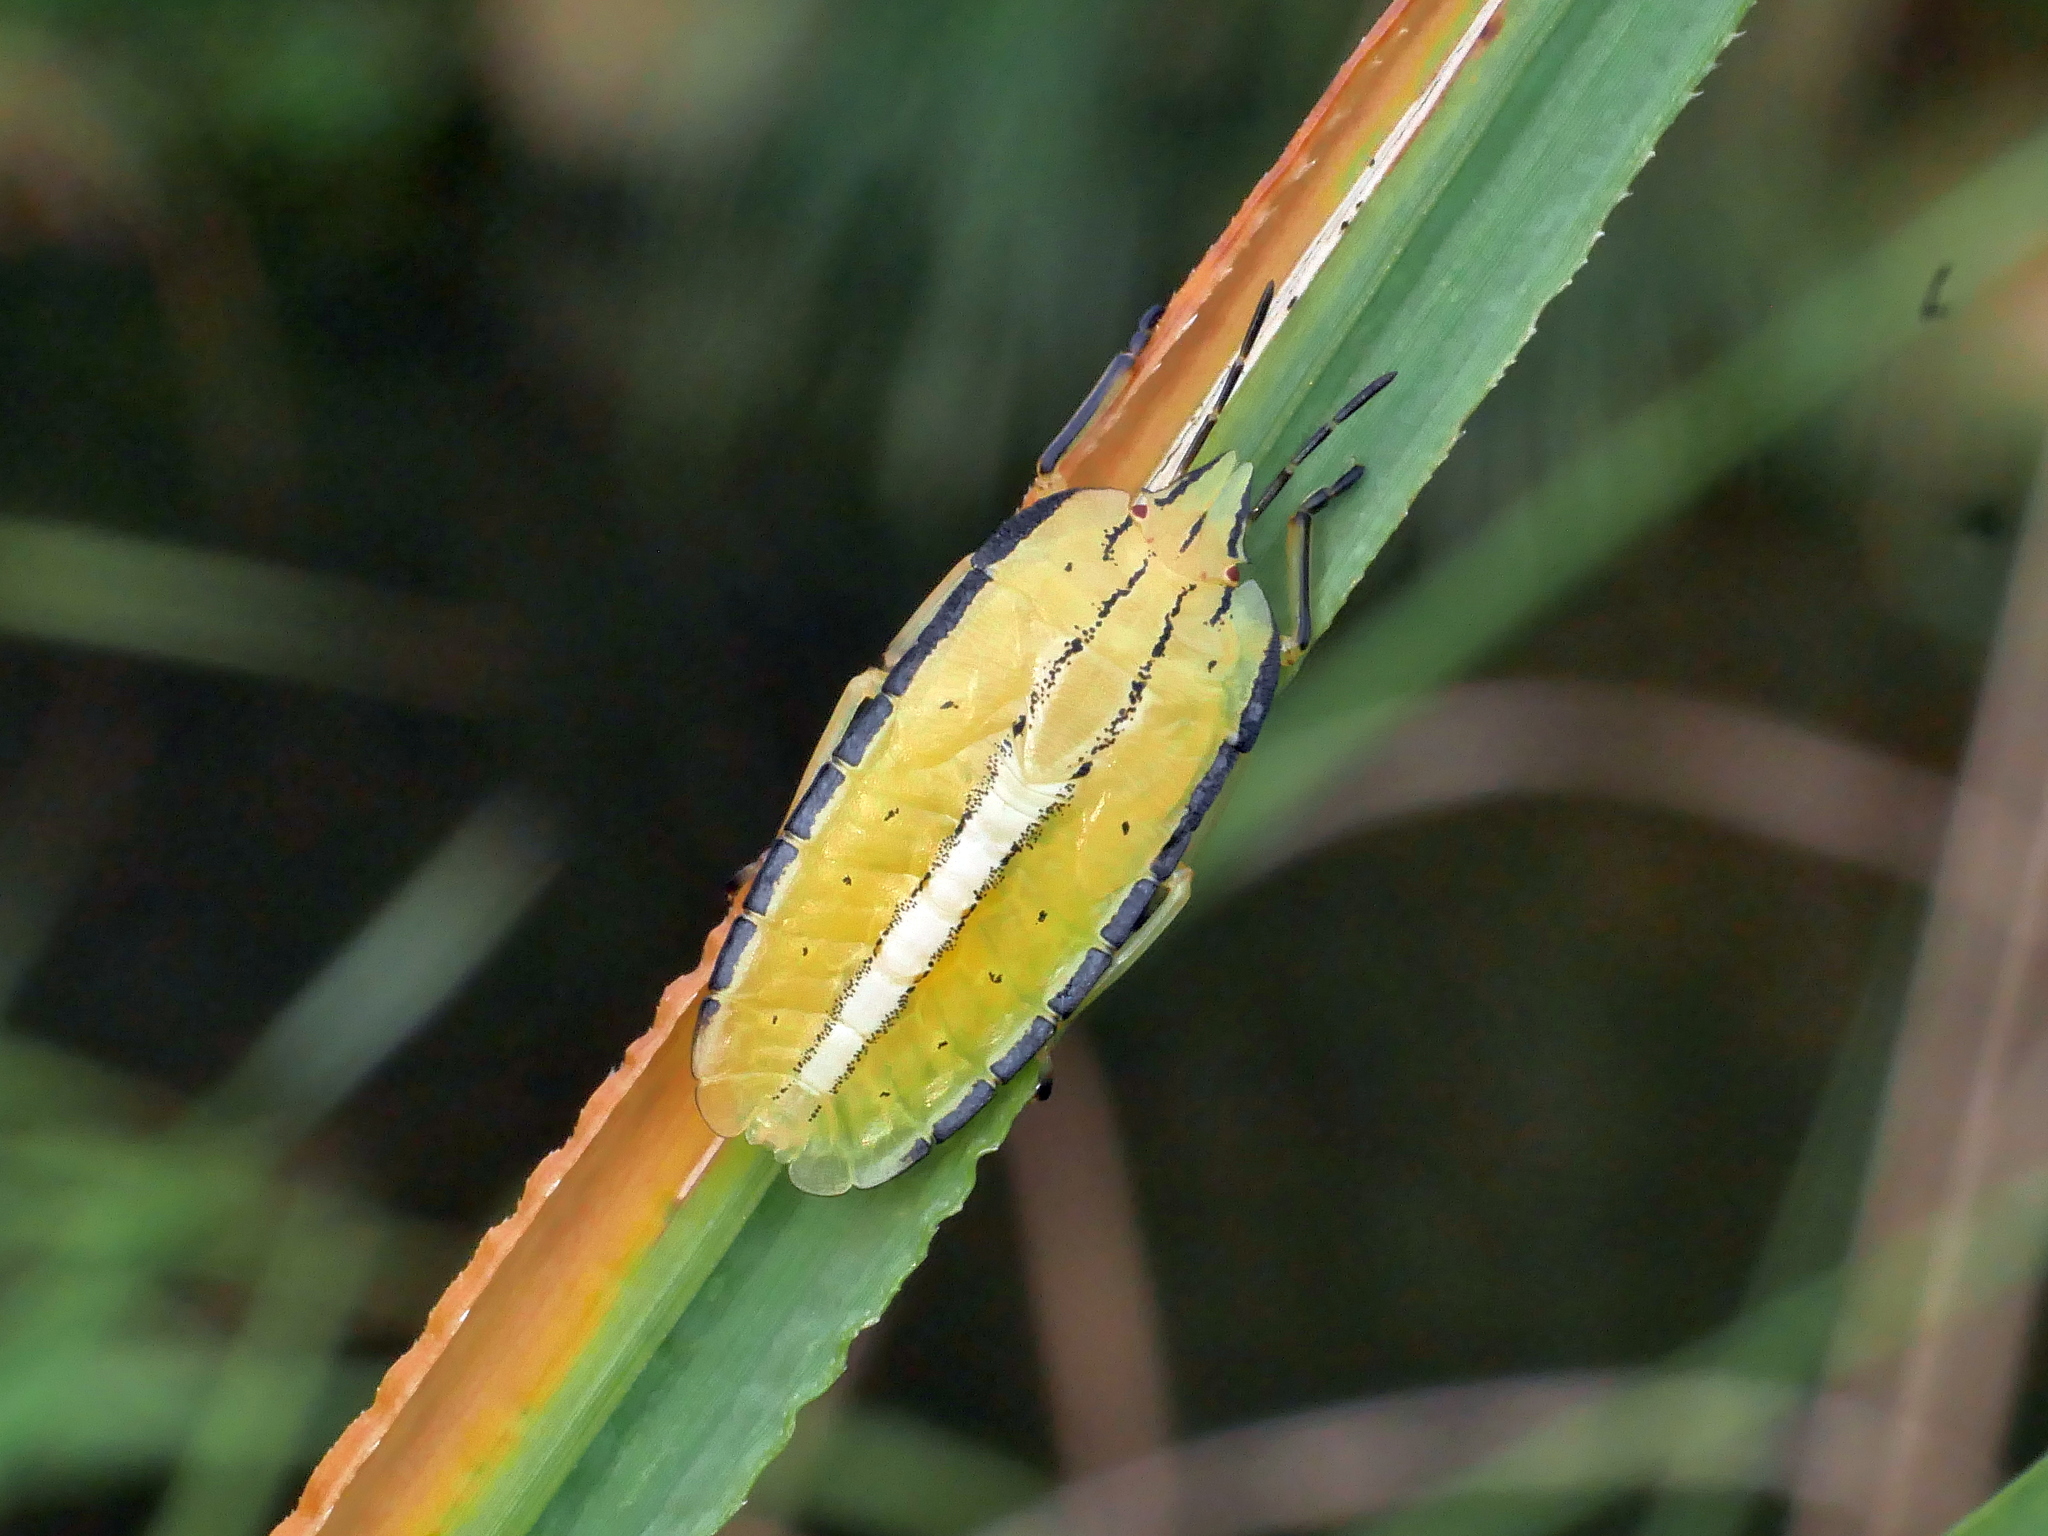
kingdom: Animalia
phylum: Arthropoda
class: Insecta
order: Hemiptera
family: Pentatomidae
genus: Megarrhamphus
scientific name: Megarrhamphus truncatus
